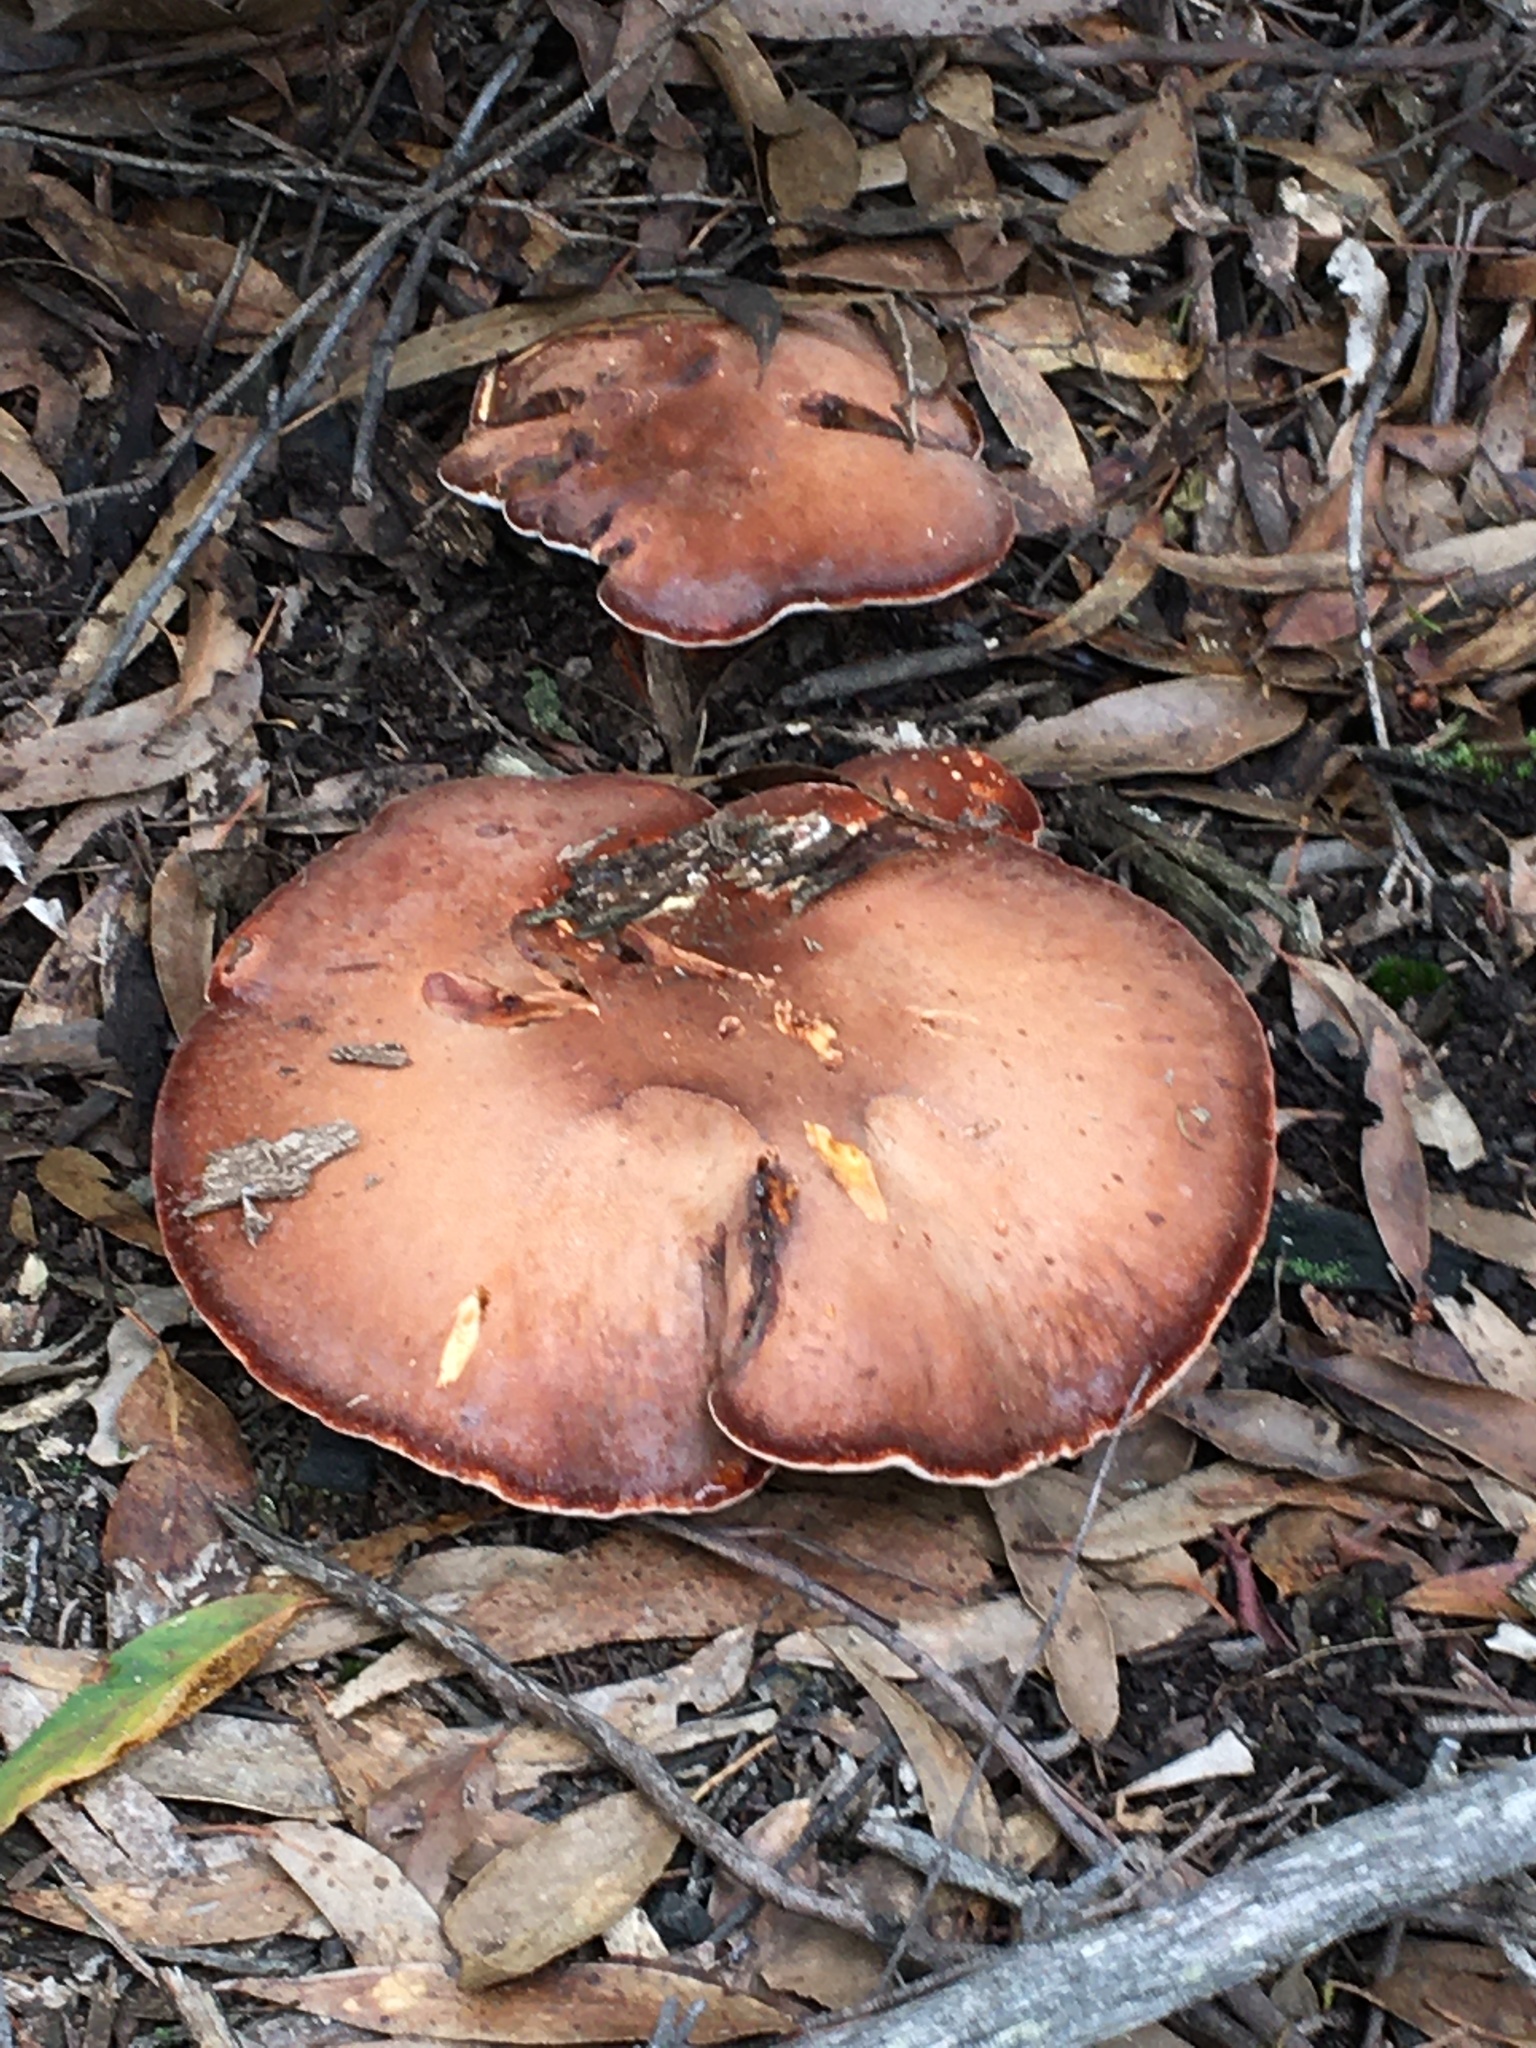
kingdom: Fungi
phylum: Basidiomycota
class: Agaricomycetes
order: Polyporales
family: Fomitopsidaceae
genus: Fomitopsis
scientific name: Fomitopsis
